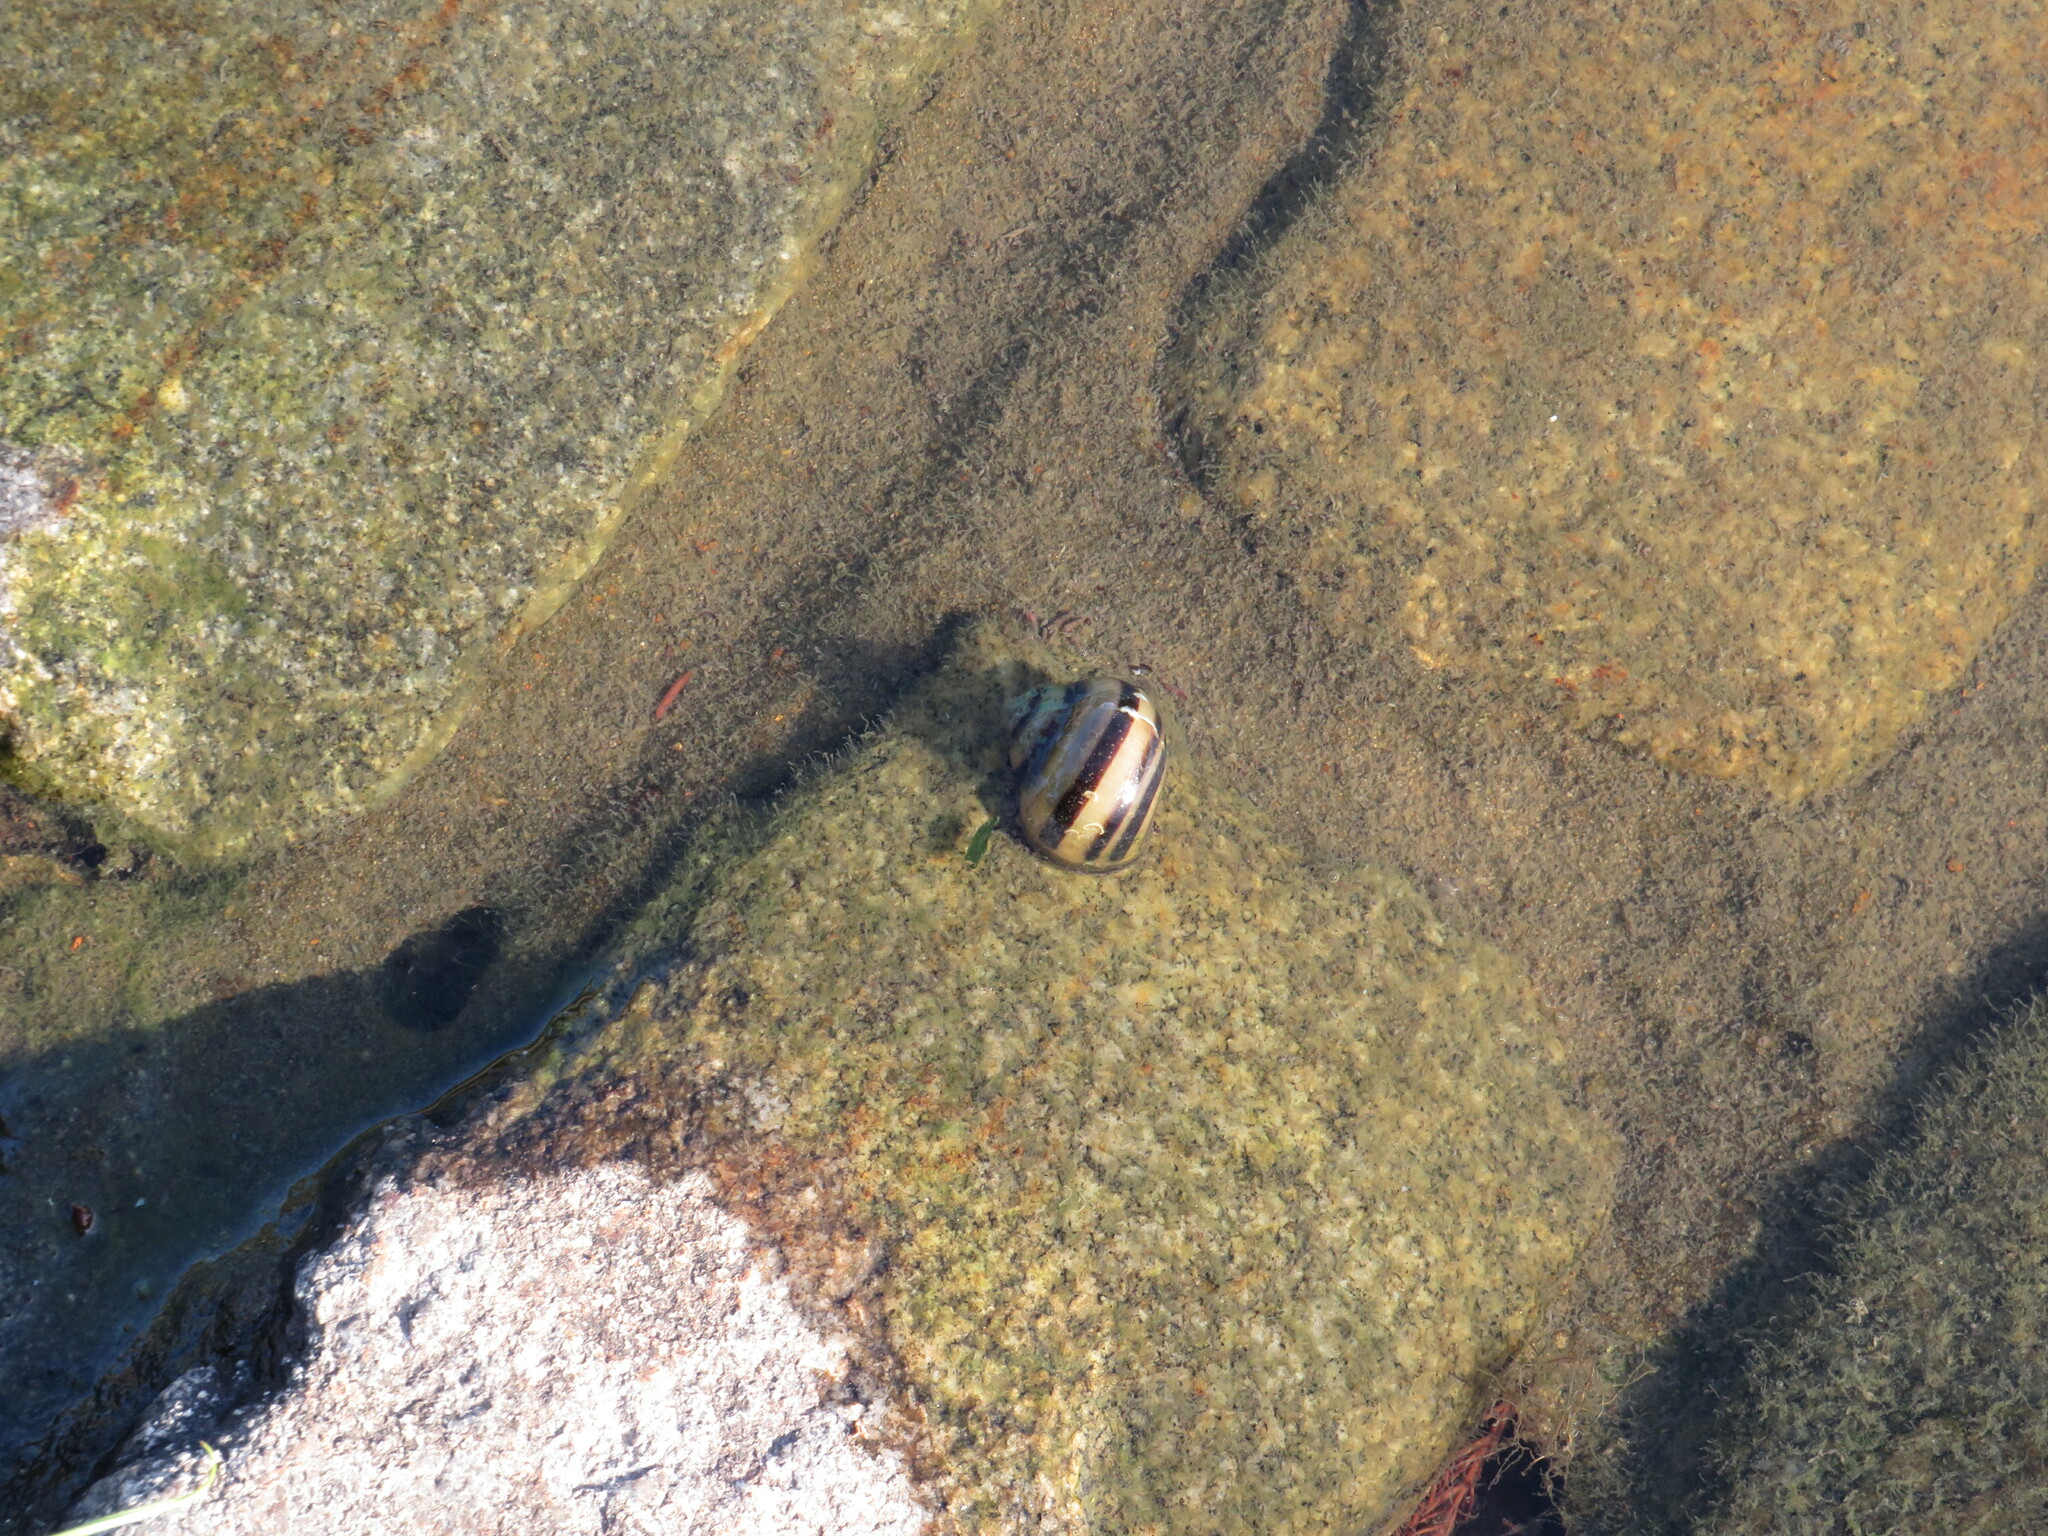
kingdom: Animalia
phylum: Mollusca
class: Gastropoda
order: Architaenioglossa
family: Ampullariidae
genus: Asolene
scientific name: Asolene platae
